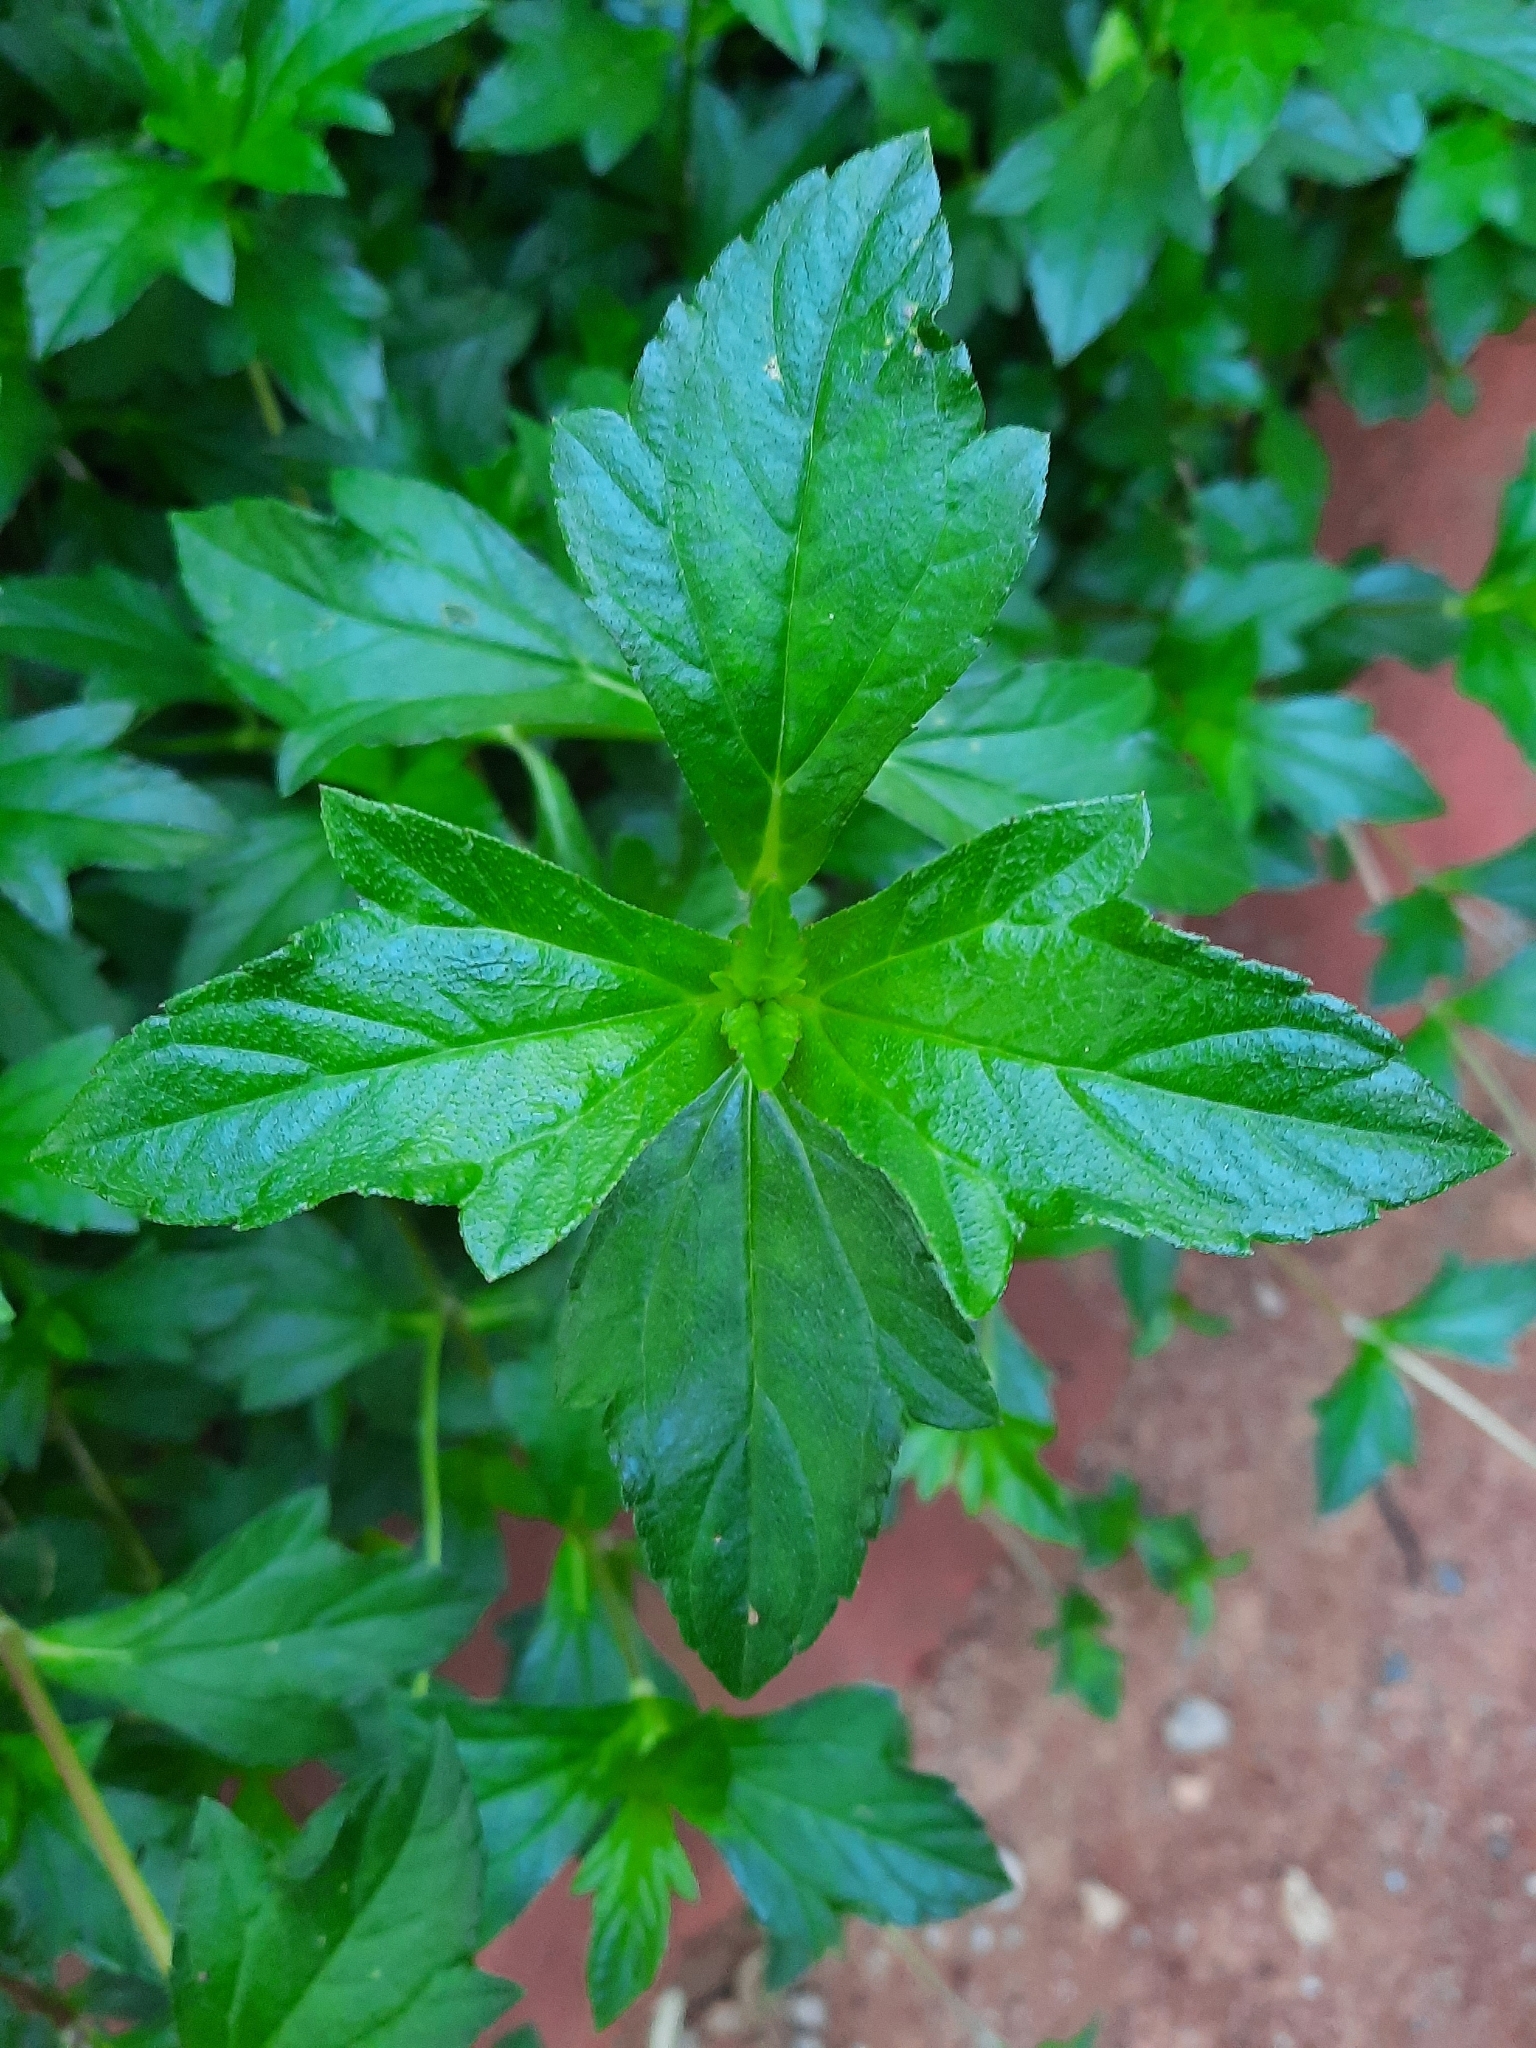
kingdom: Plantae
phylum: Tracheophyta
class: Magnoliopsida
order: Asterales
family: Asteraceae
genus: Sphagneticola
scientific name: Sphagneticola trilobata
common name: Bay biscayne creeping-oxeye
